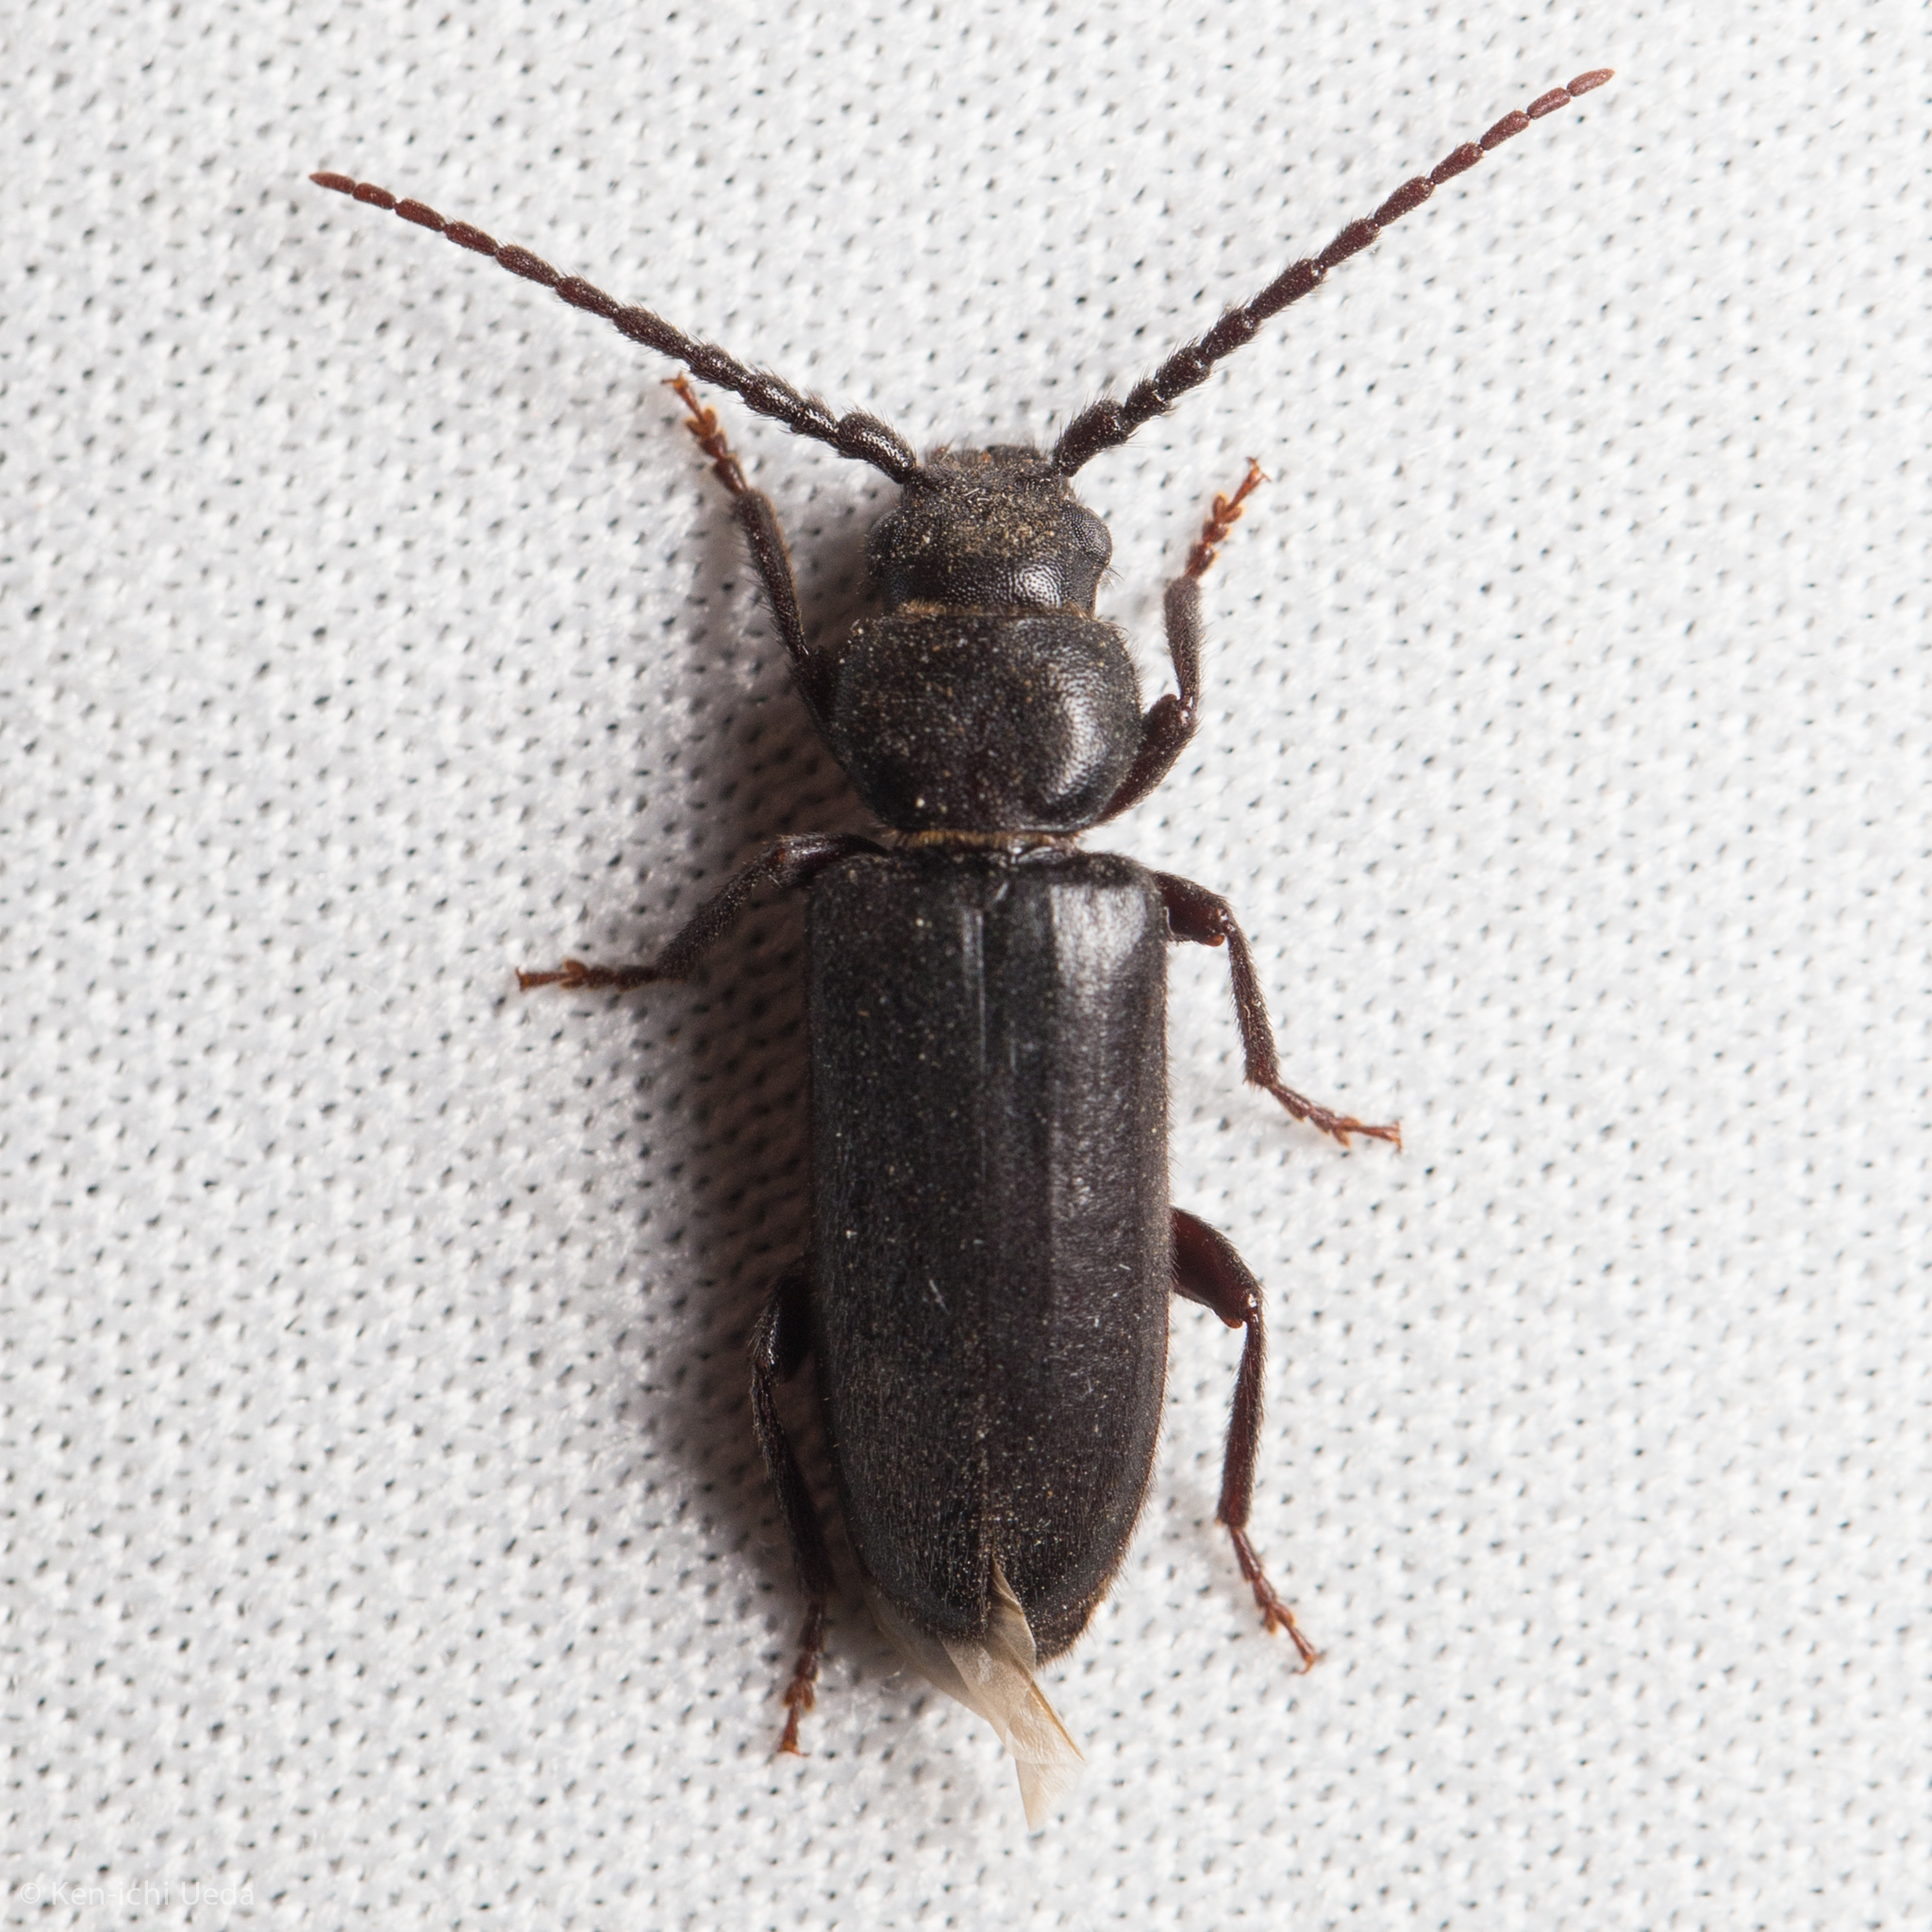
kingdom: Animalia
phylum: Arthropoda
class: Insecta
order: Coleoptera
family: Cerambycidae
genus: Asemum
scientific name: Asemum nitidum
